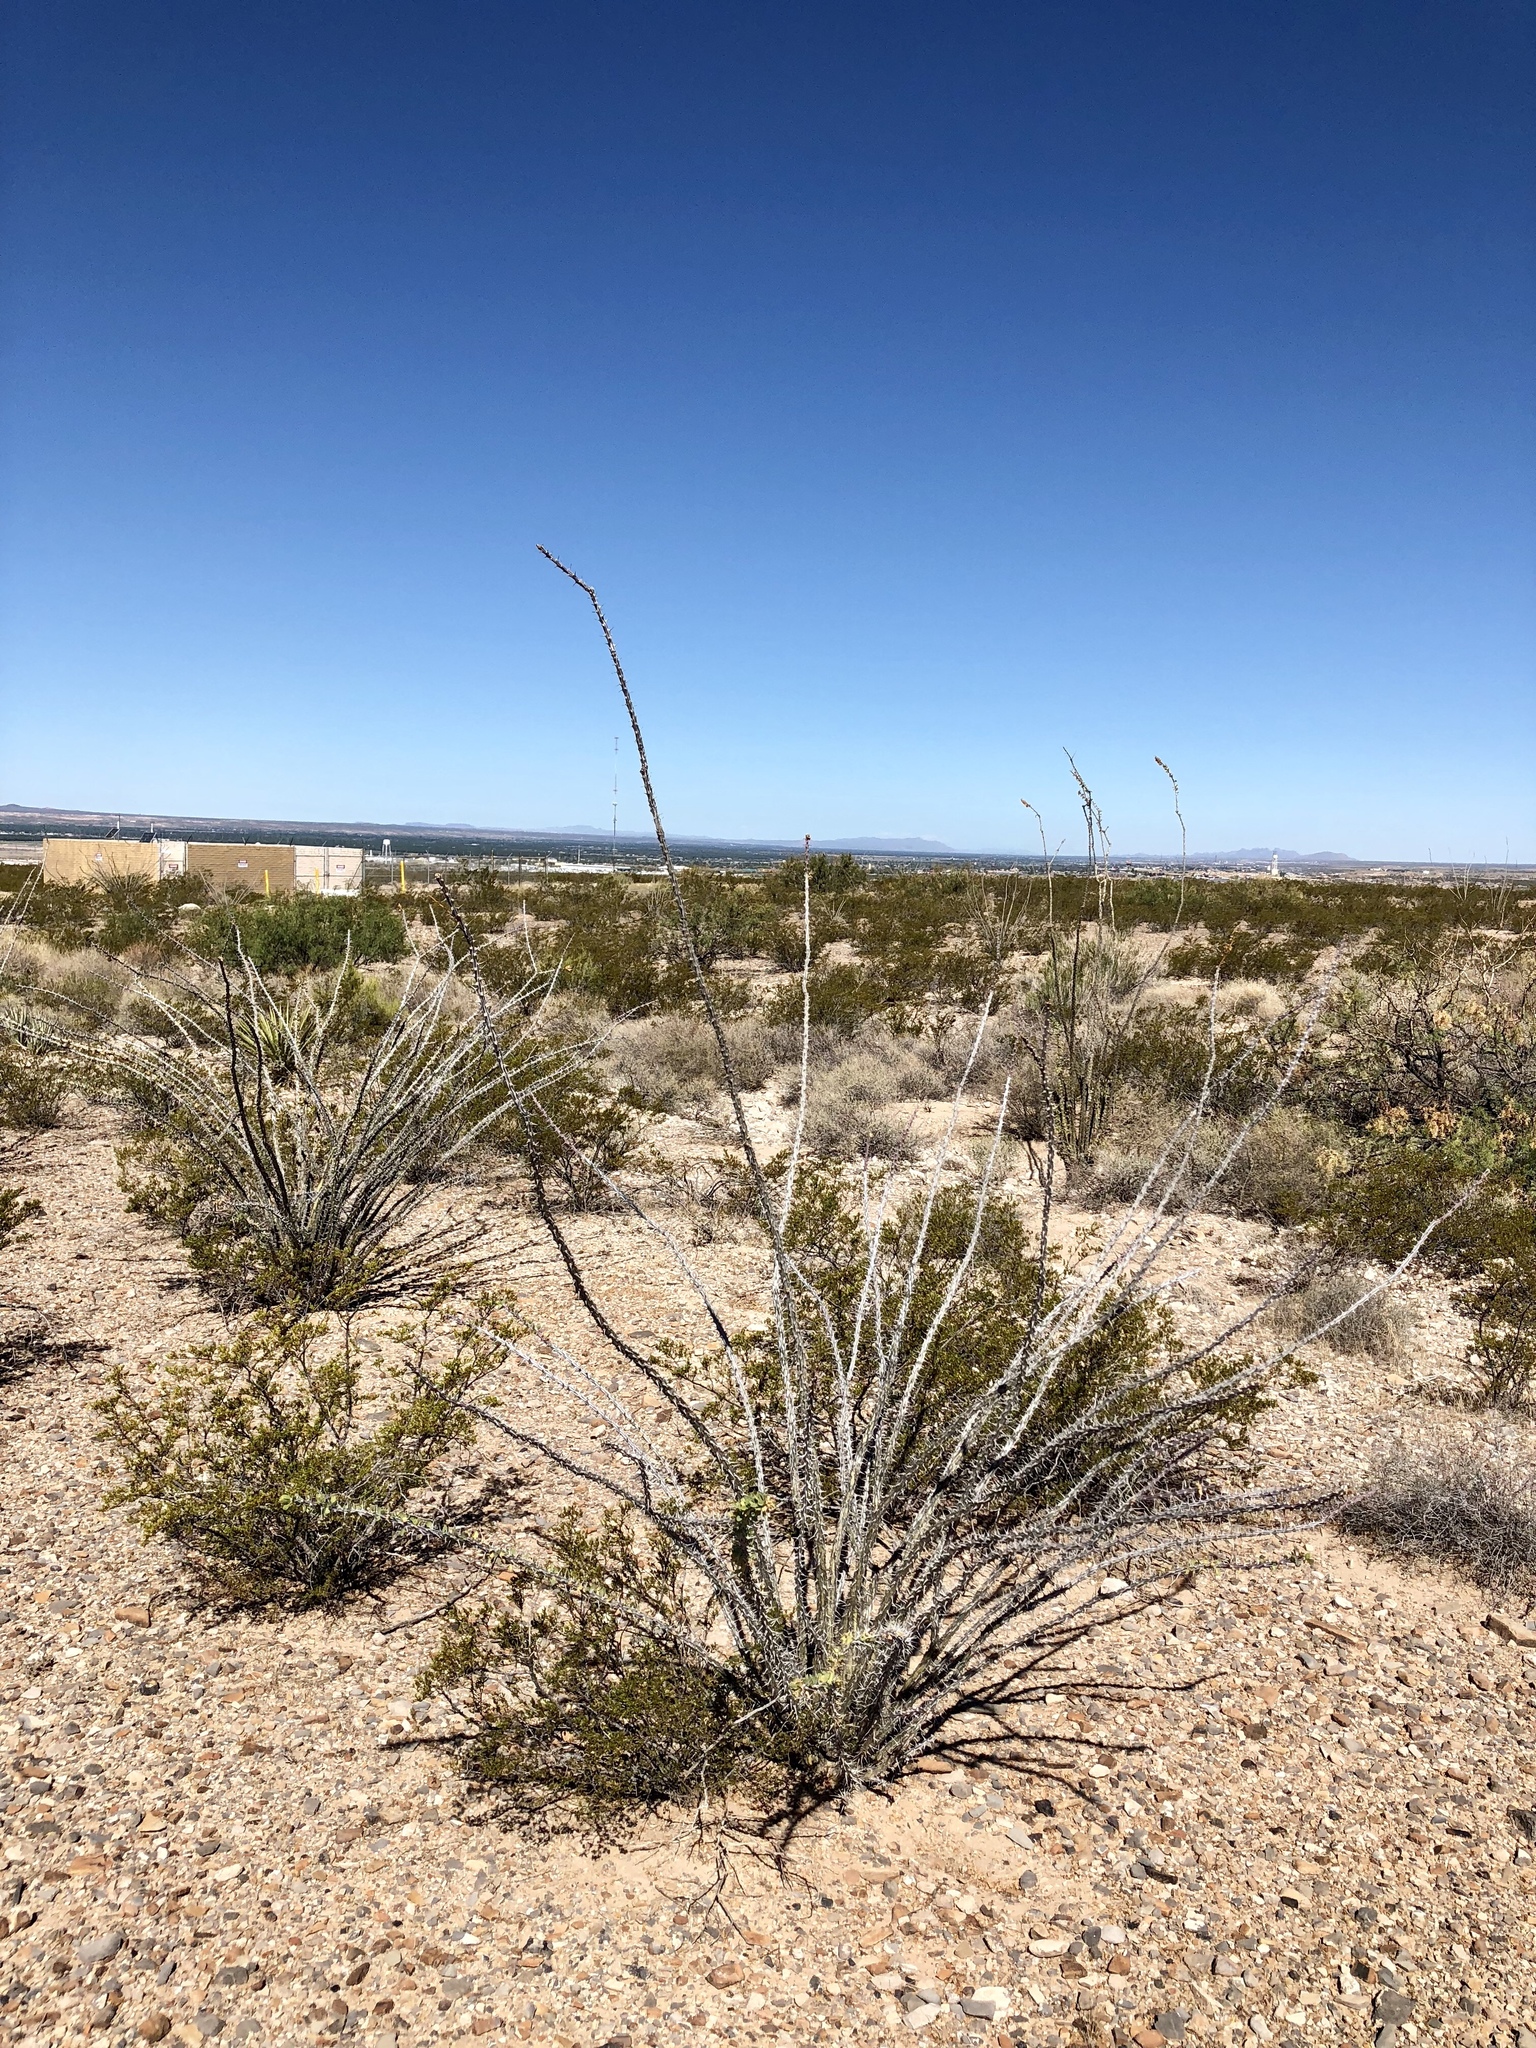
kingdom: Plantae
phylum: Tracheophyta
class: Magnoliopsida
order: Ericales
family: Fouquieriaceae
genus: Fouquieria
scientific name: Fouquieria splendens
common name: Vine-cactus
